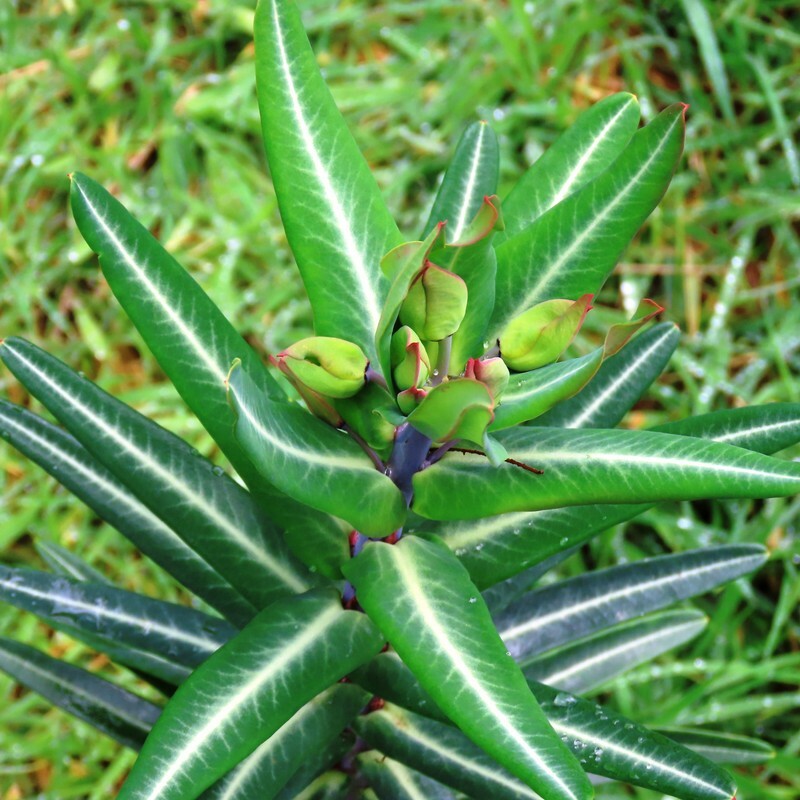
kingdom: Plantae
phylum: Tracheophyta
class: Magnoliopsida
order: Malpighiales
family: Euphorbiaceae
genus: Euphorbia
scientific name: Euphorbia lathyris
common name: Caper spurge
